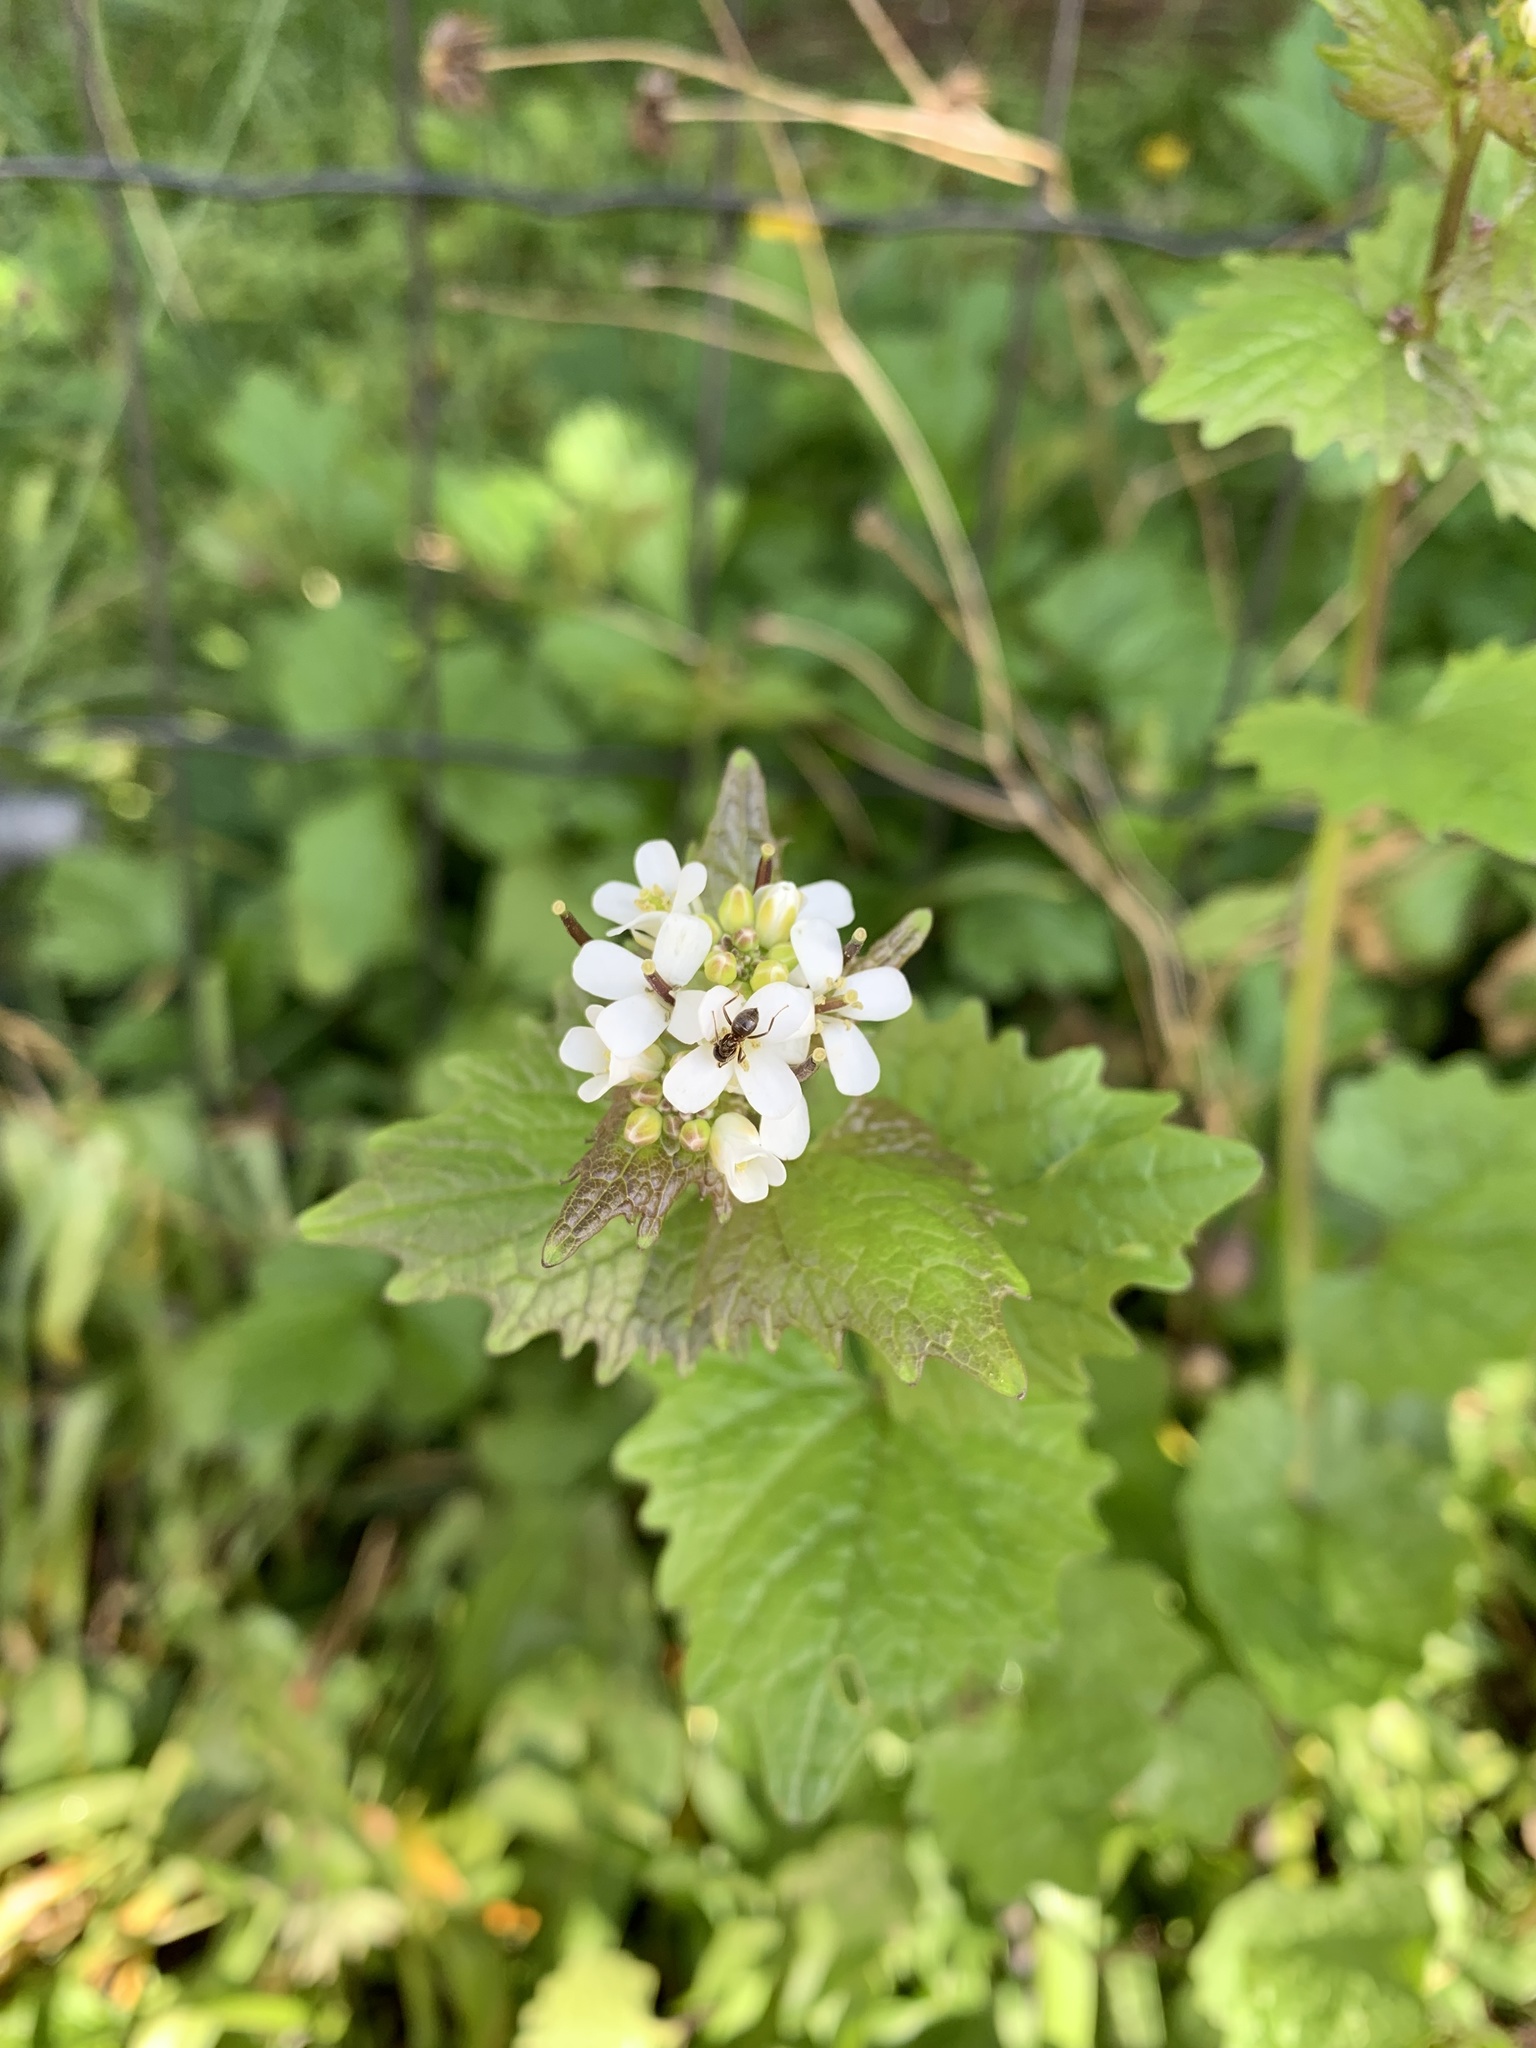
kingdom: Plantae
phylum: Tracheophyta
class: Magnoliopsida
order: Brassicales
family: Brassicaceae
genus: Alliaria
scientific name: Alliaria petiolata
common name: Garlic mustard
